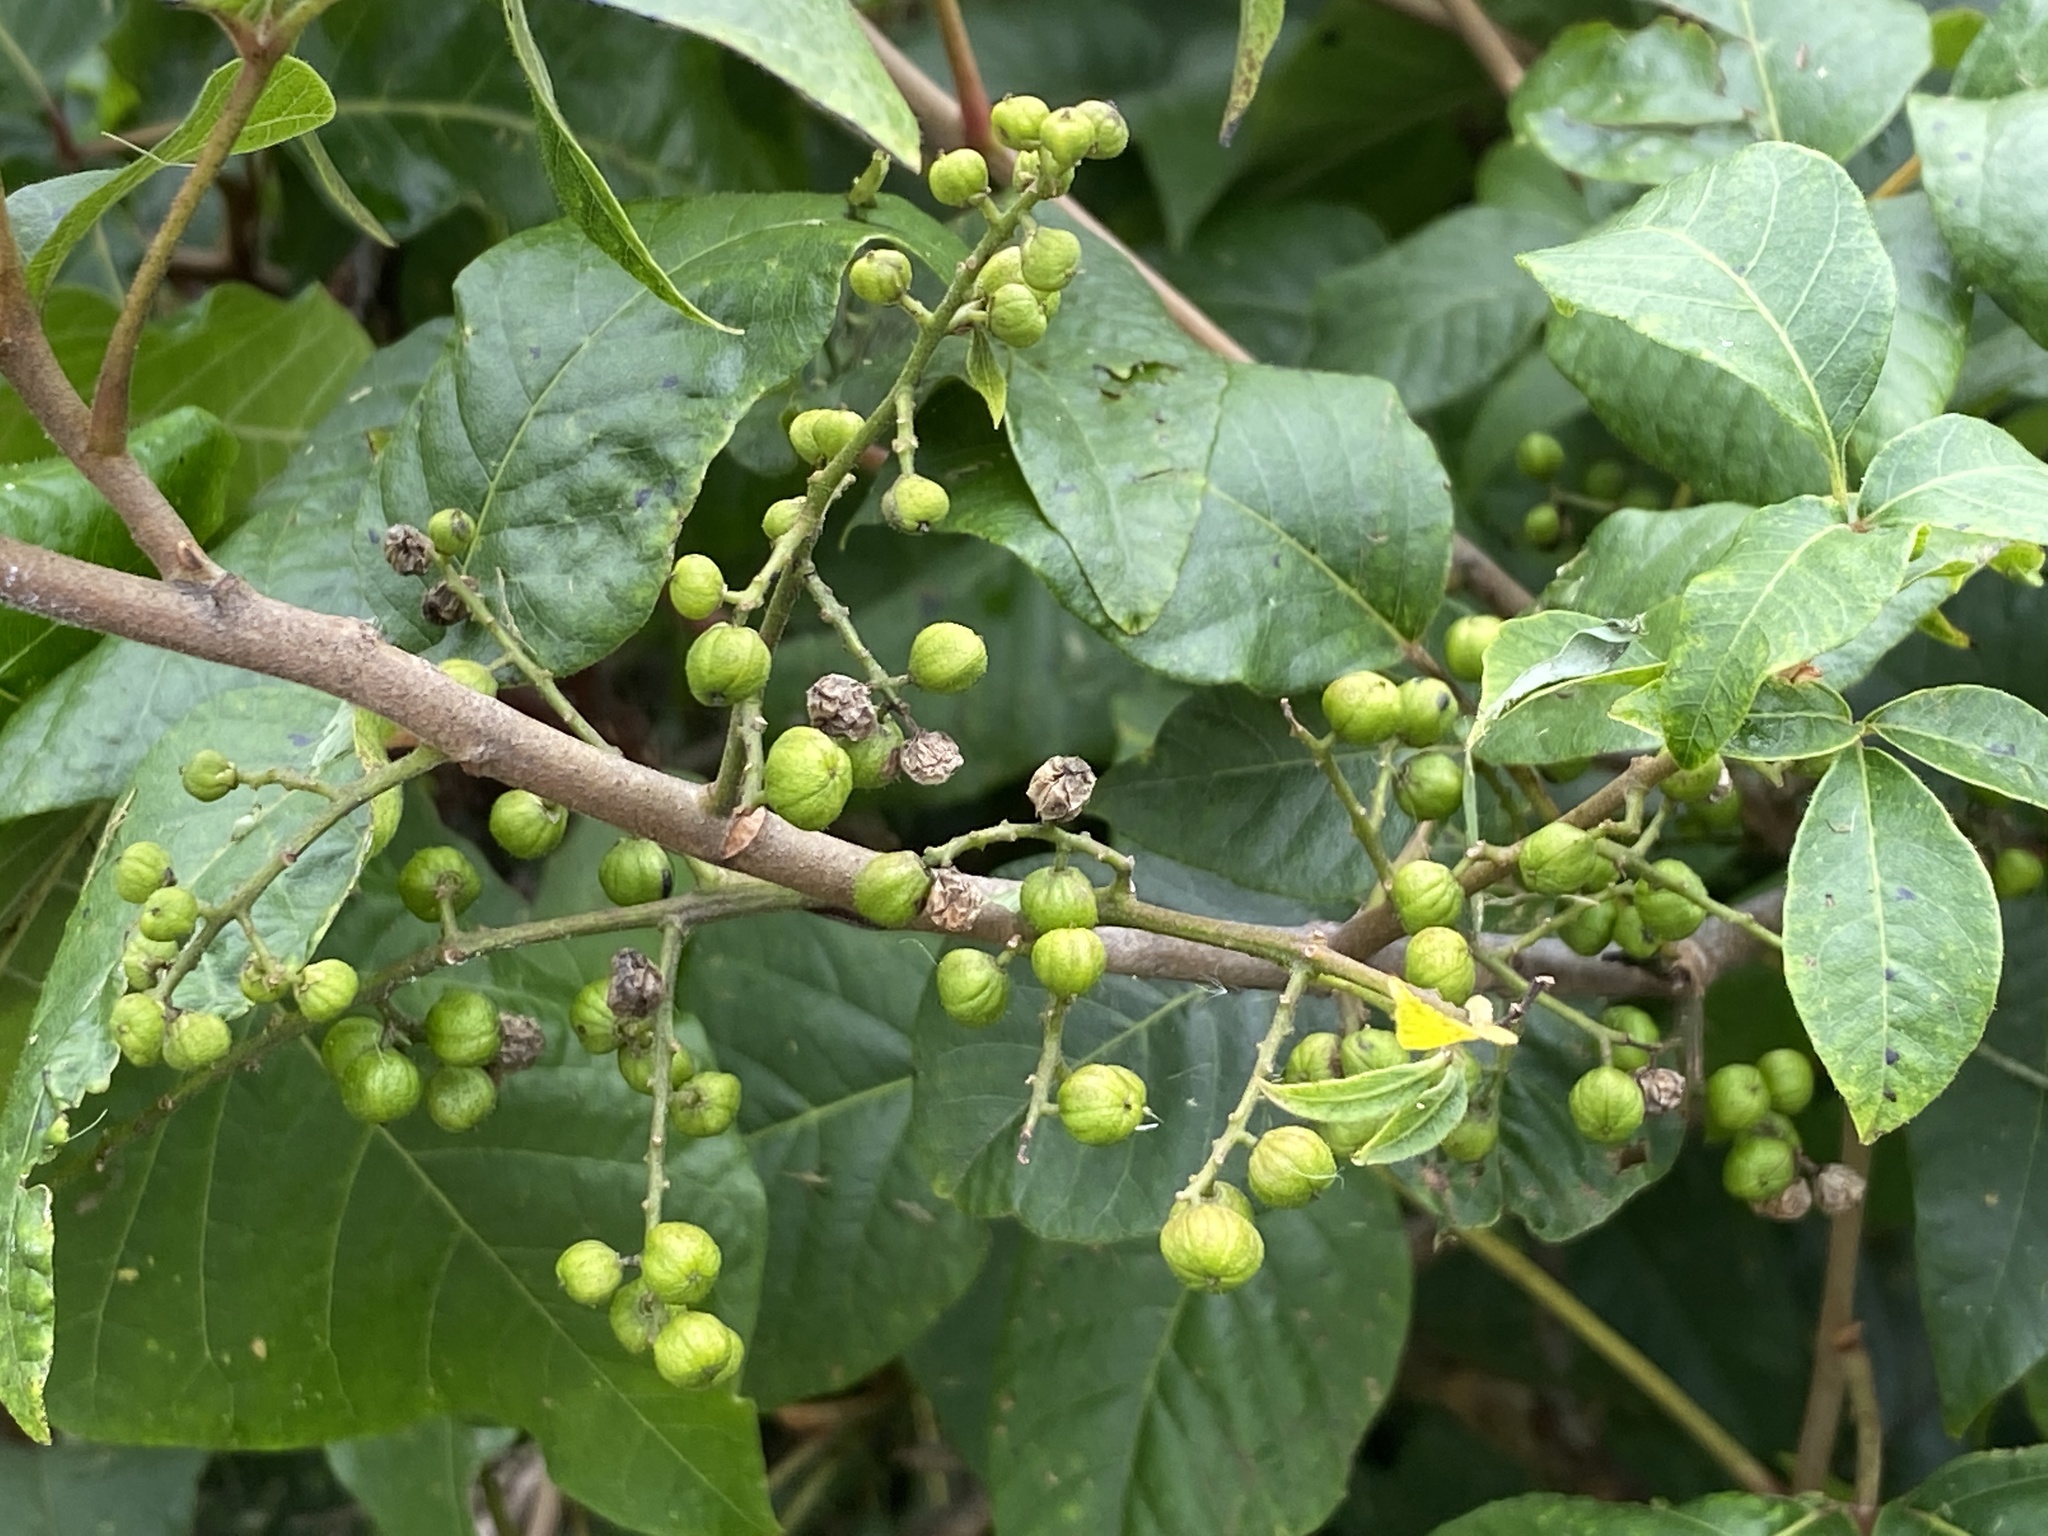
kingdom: Plantae
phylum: Tracheophyta
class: Magnoliopsida
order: Sapindales
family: Anacardiaceae
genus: Toxicodendron
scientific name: Toxicodendron radicans
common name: Poison ivy
